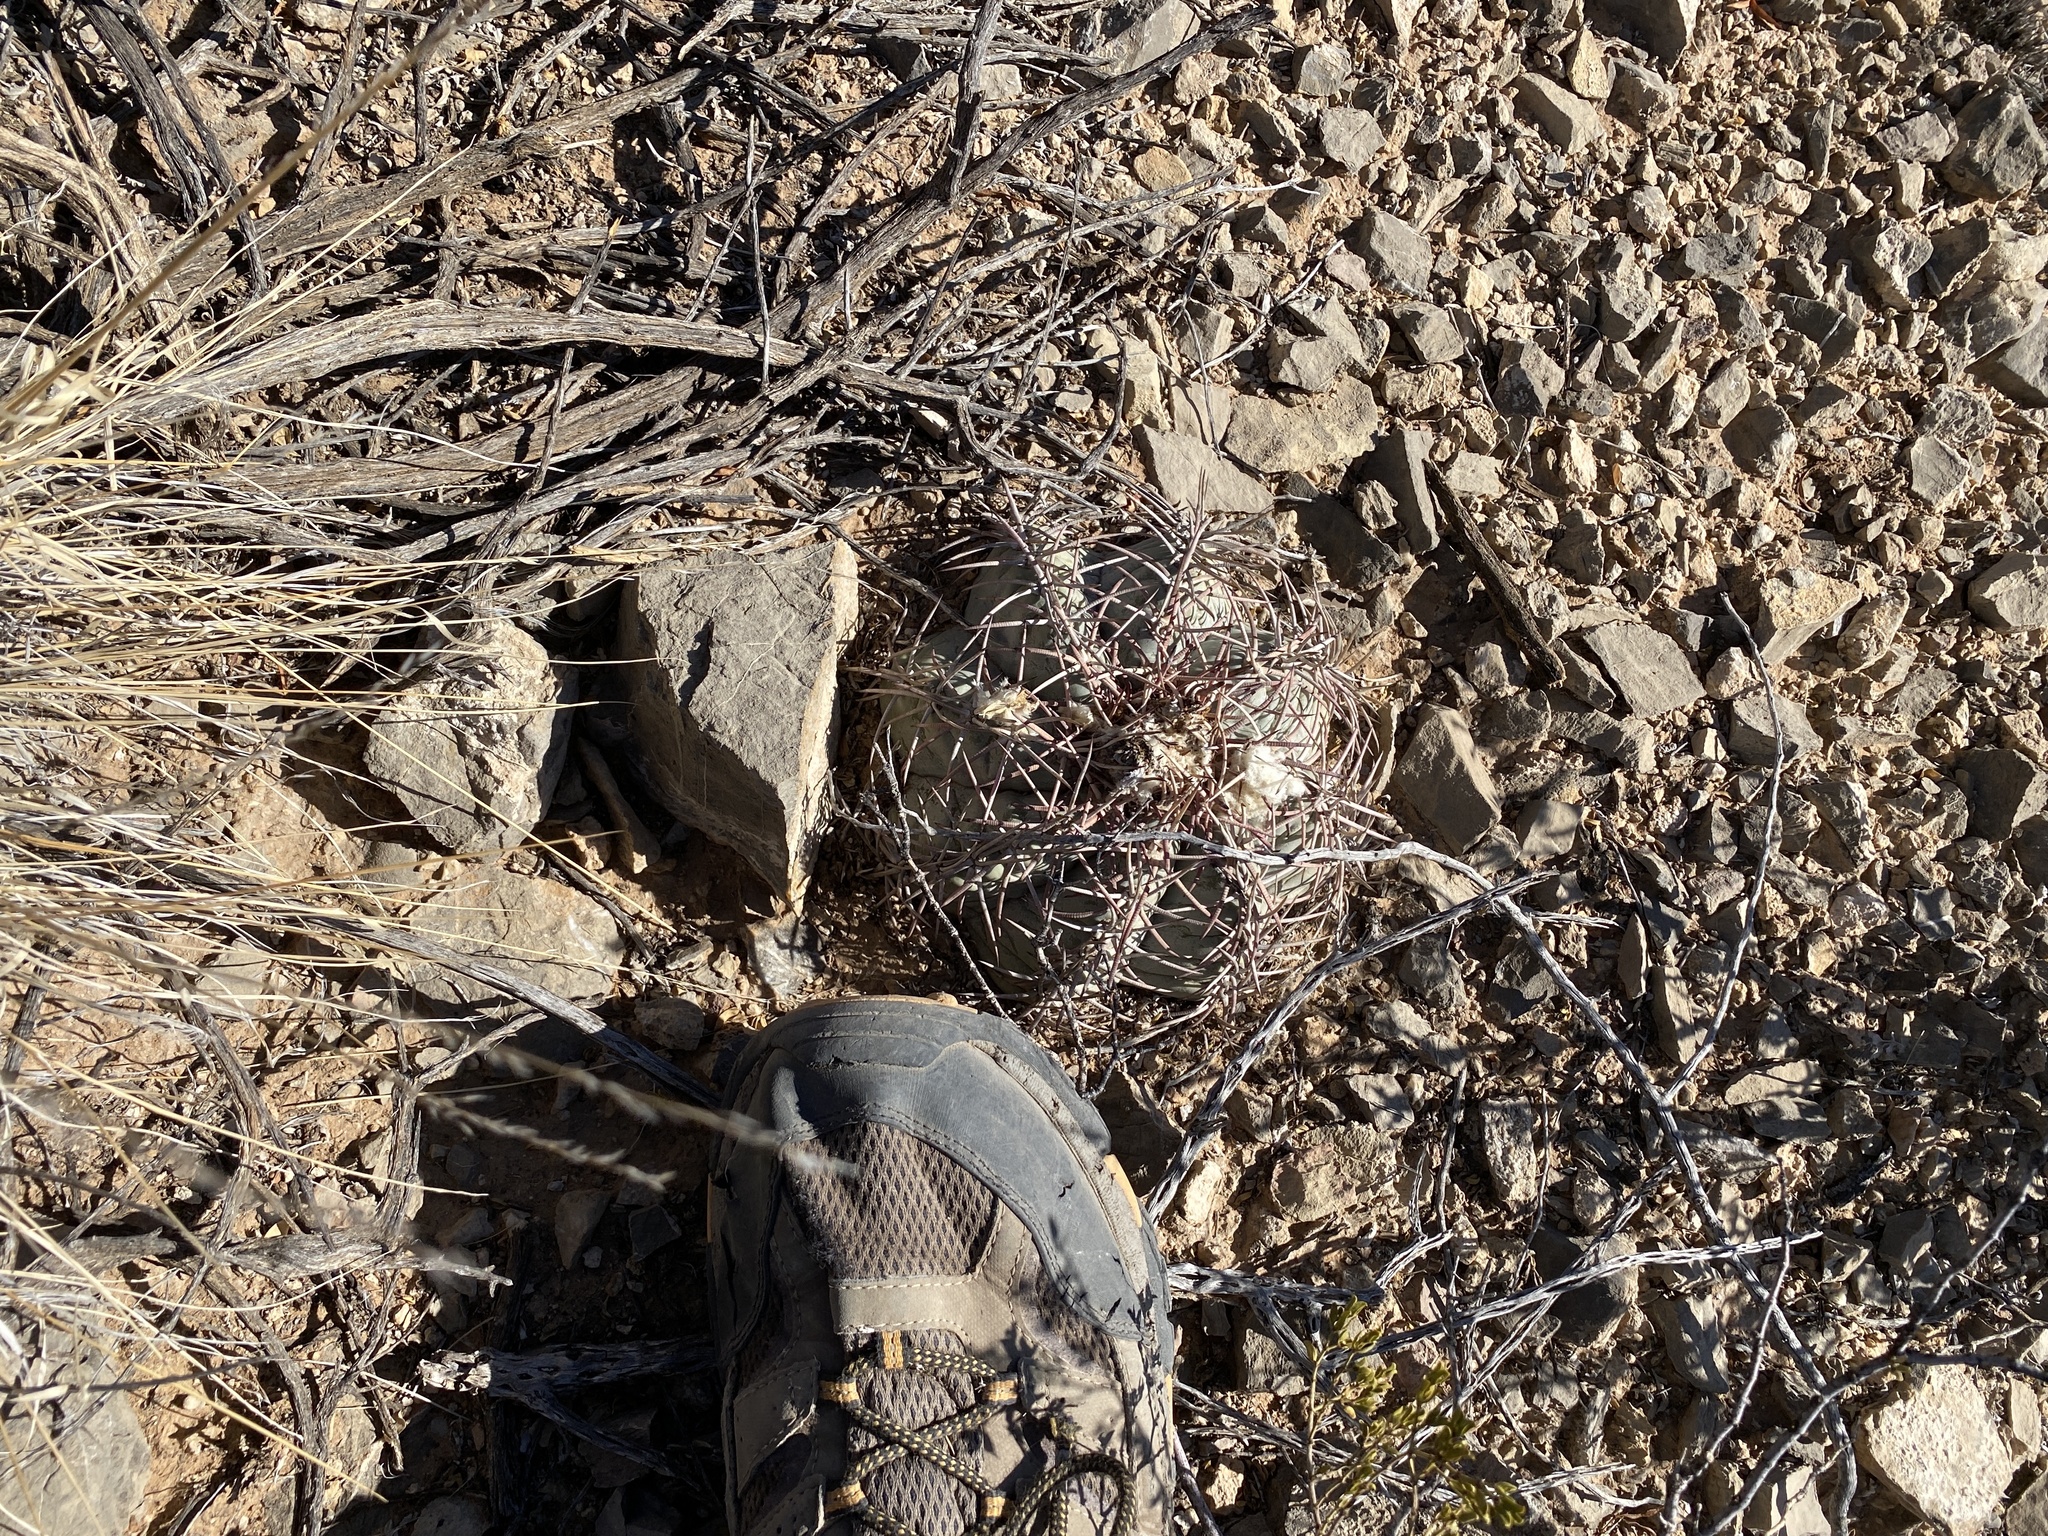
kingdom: Plantae
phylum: Tracheophyta
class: Magnoliopsida
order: Caryophyllales
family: Cactaceae
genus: Echinocactus
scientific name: Echinocactus horizonthalonius
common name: Devilshead
